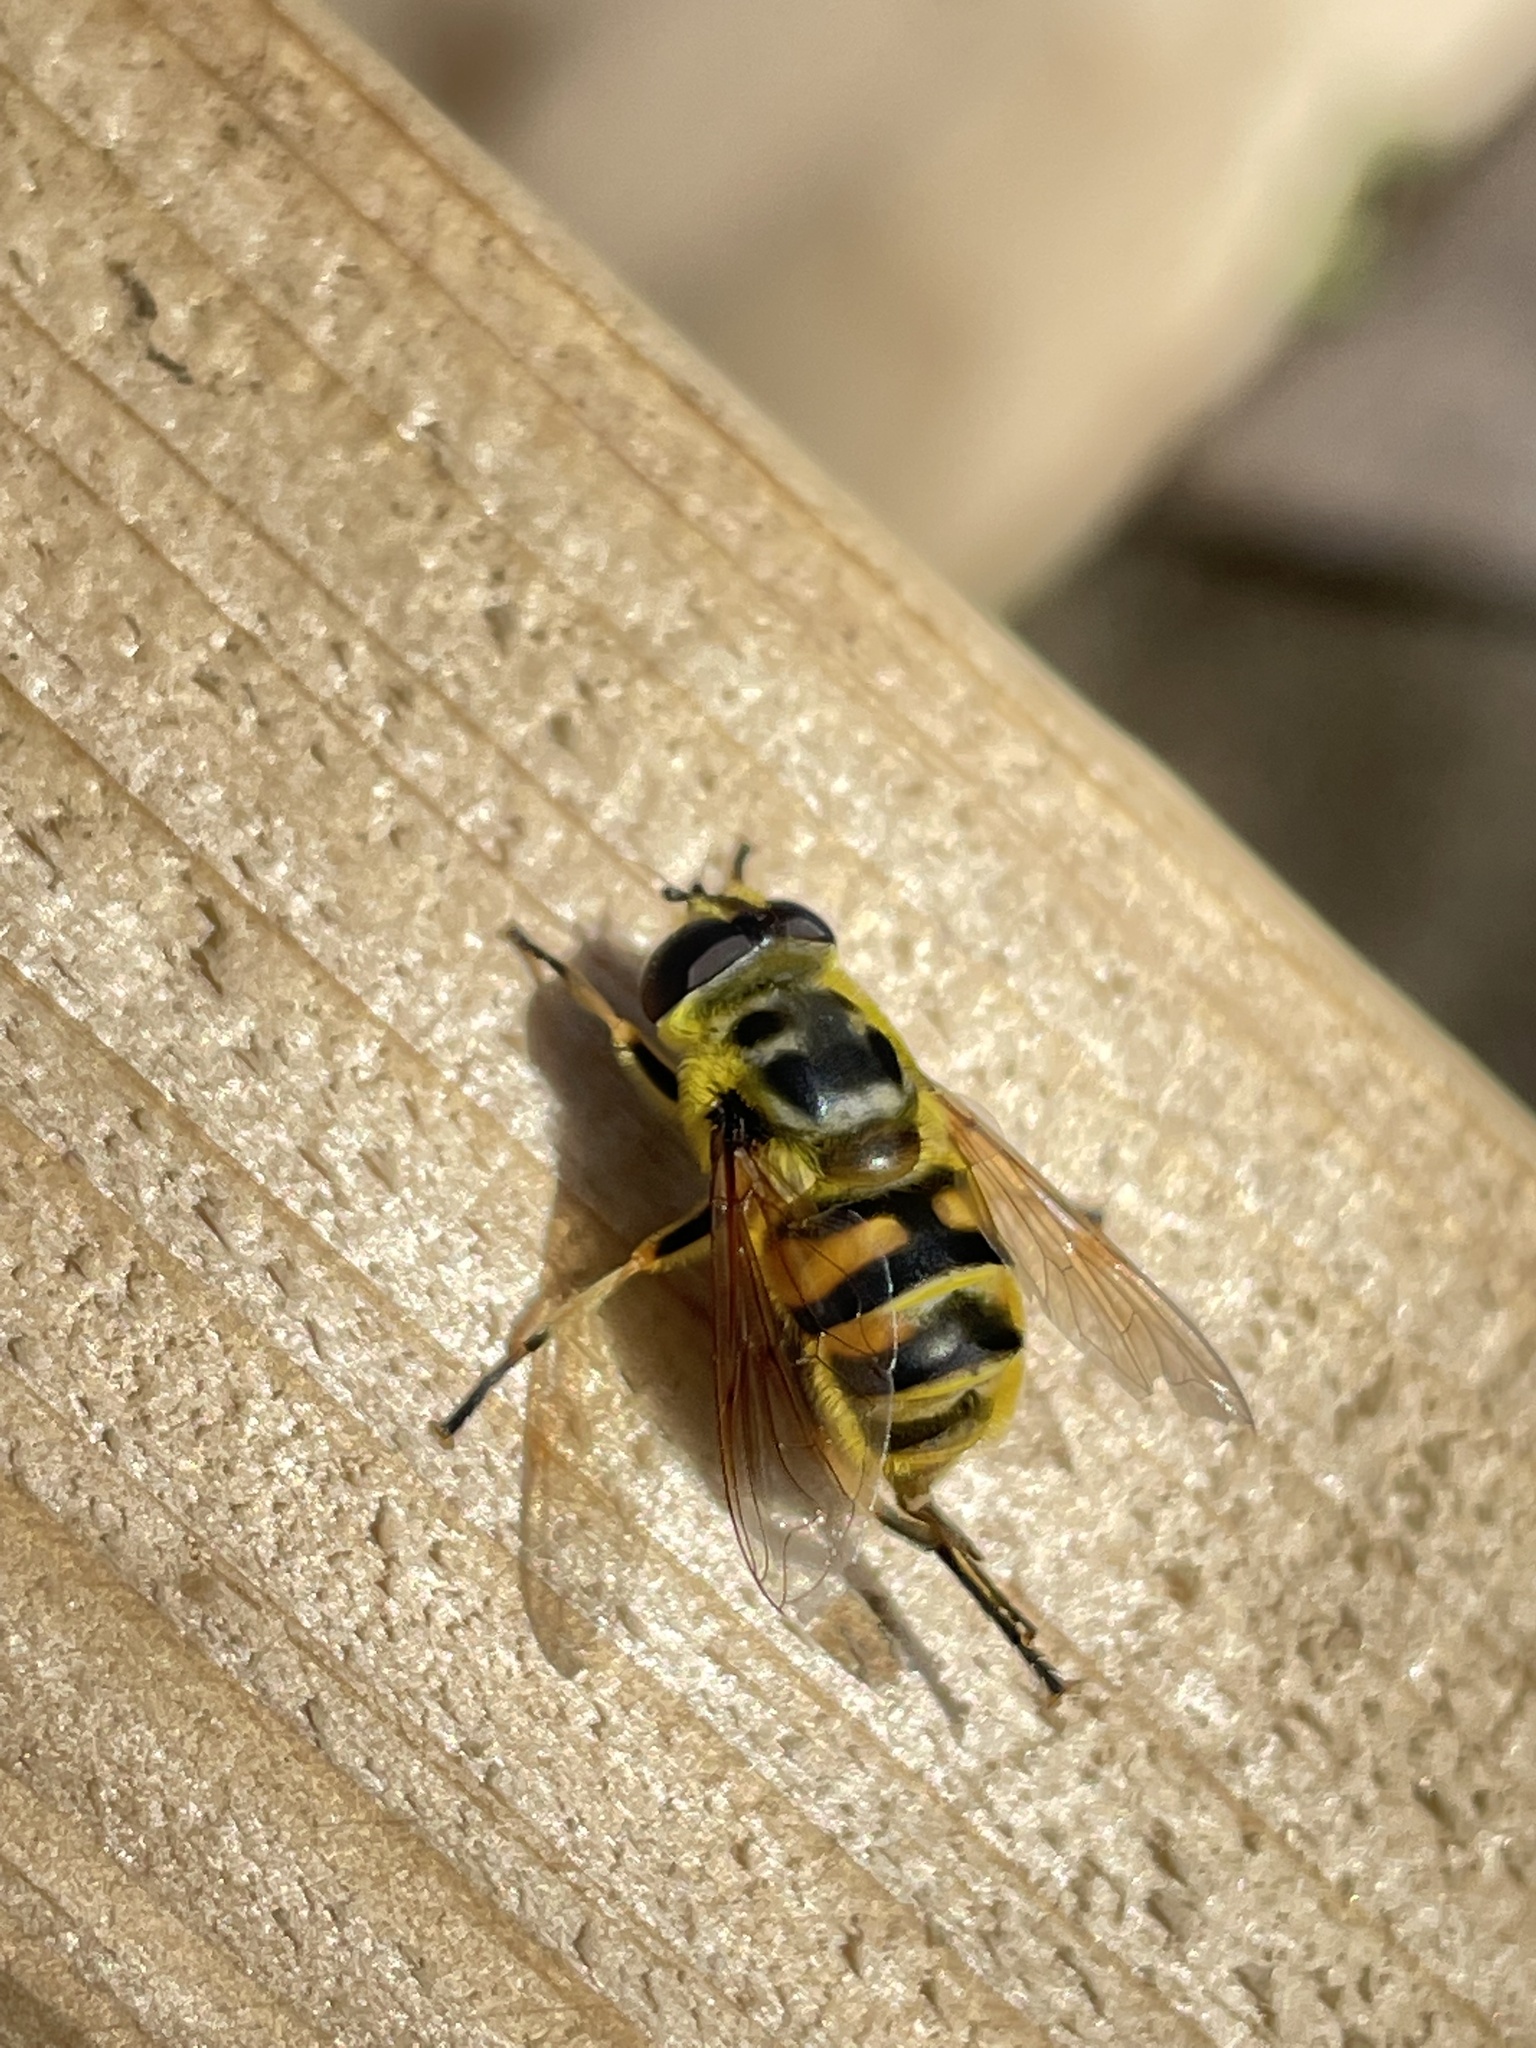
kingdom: Animalia
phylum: Arthropoda
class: Insecta
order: Diptera
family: Syrphidae
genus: Myathropa
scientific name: Myathropa florea
